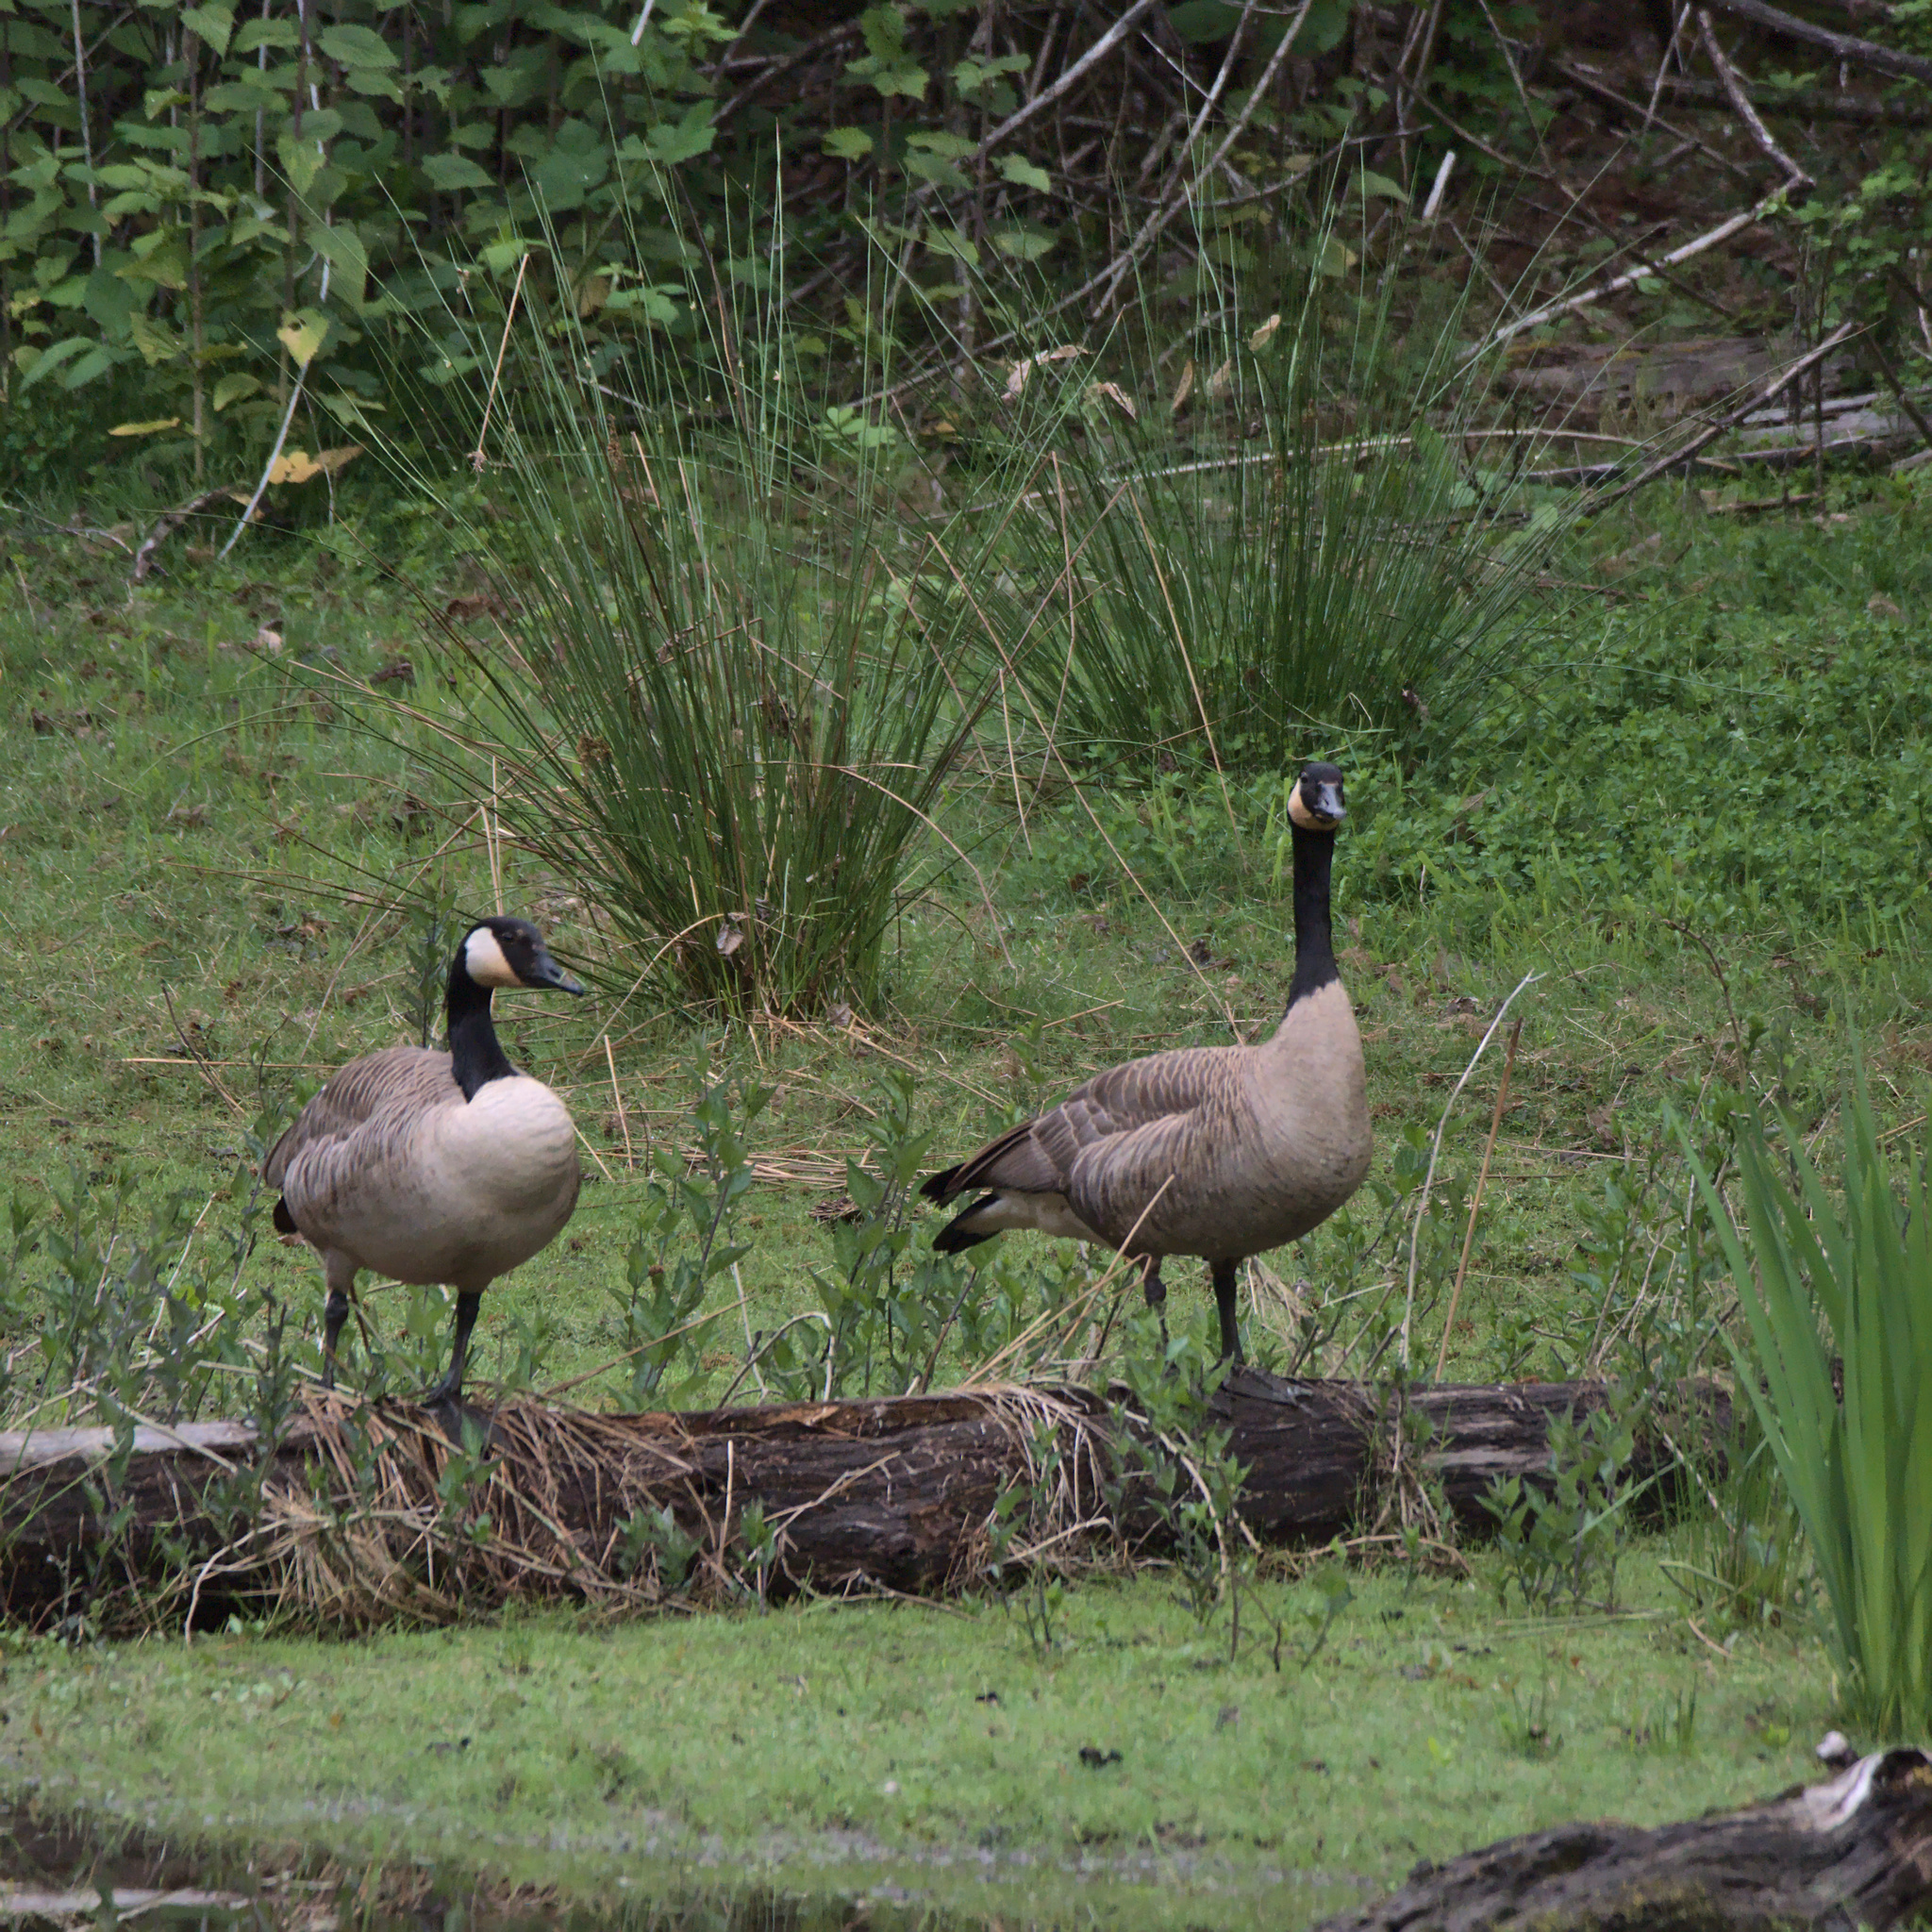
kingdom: Animalia
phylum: Chordata
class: Aves
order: Anseriformes
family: Anatidae
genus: Branta
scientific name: Branta canadensis
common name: Canada goose
